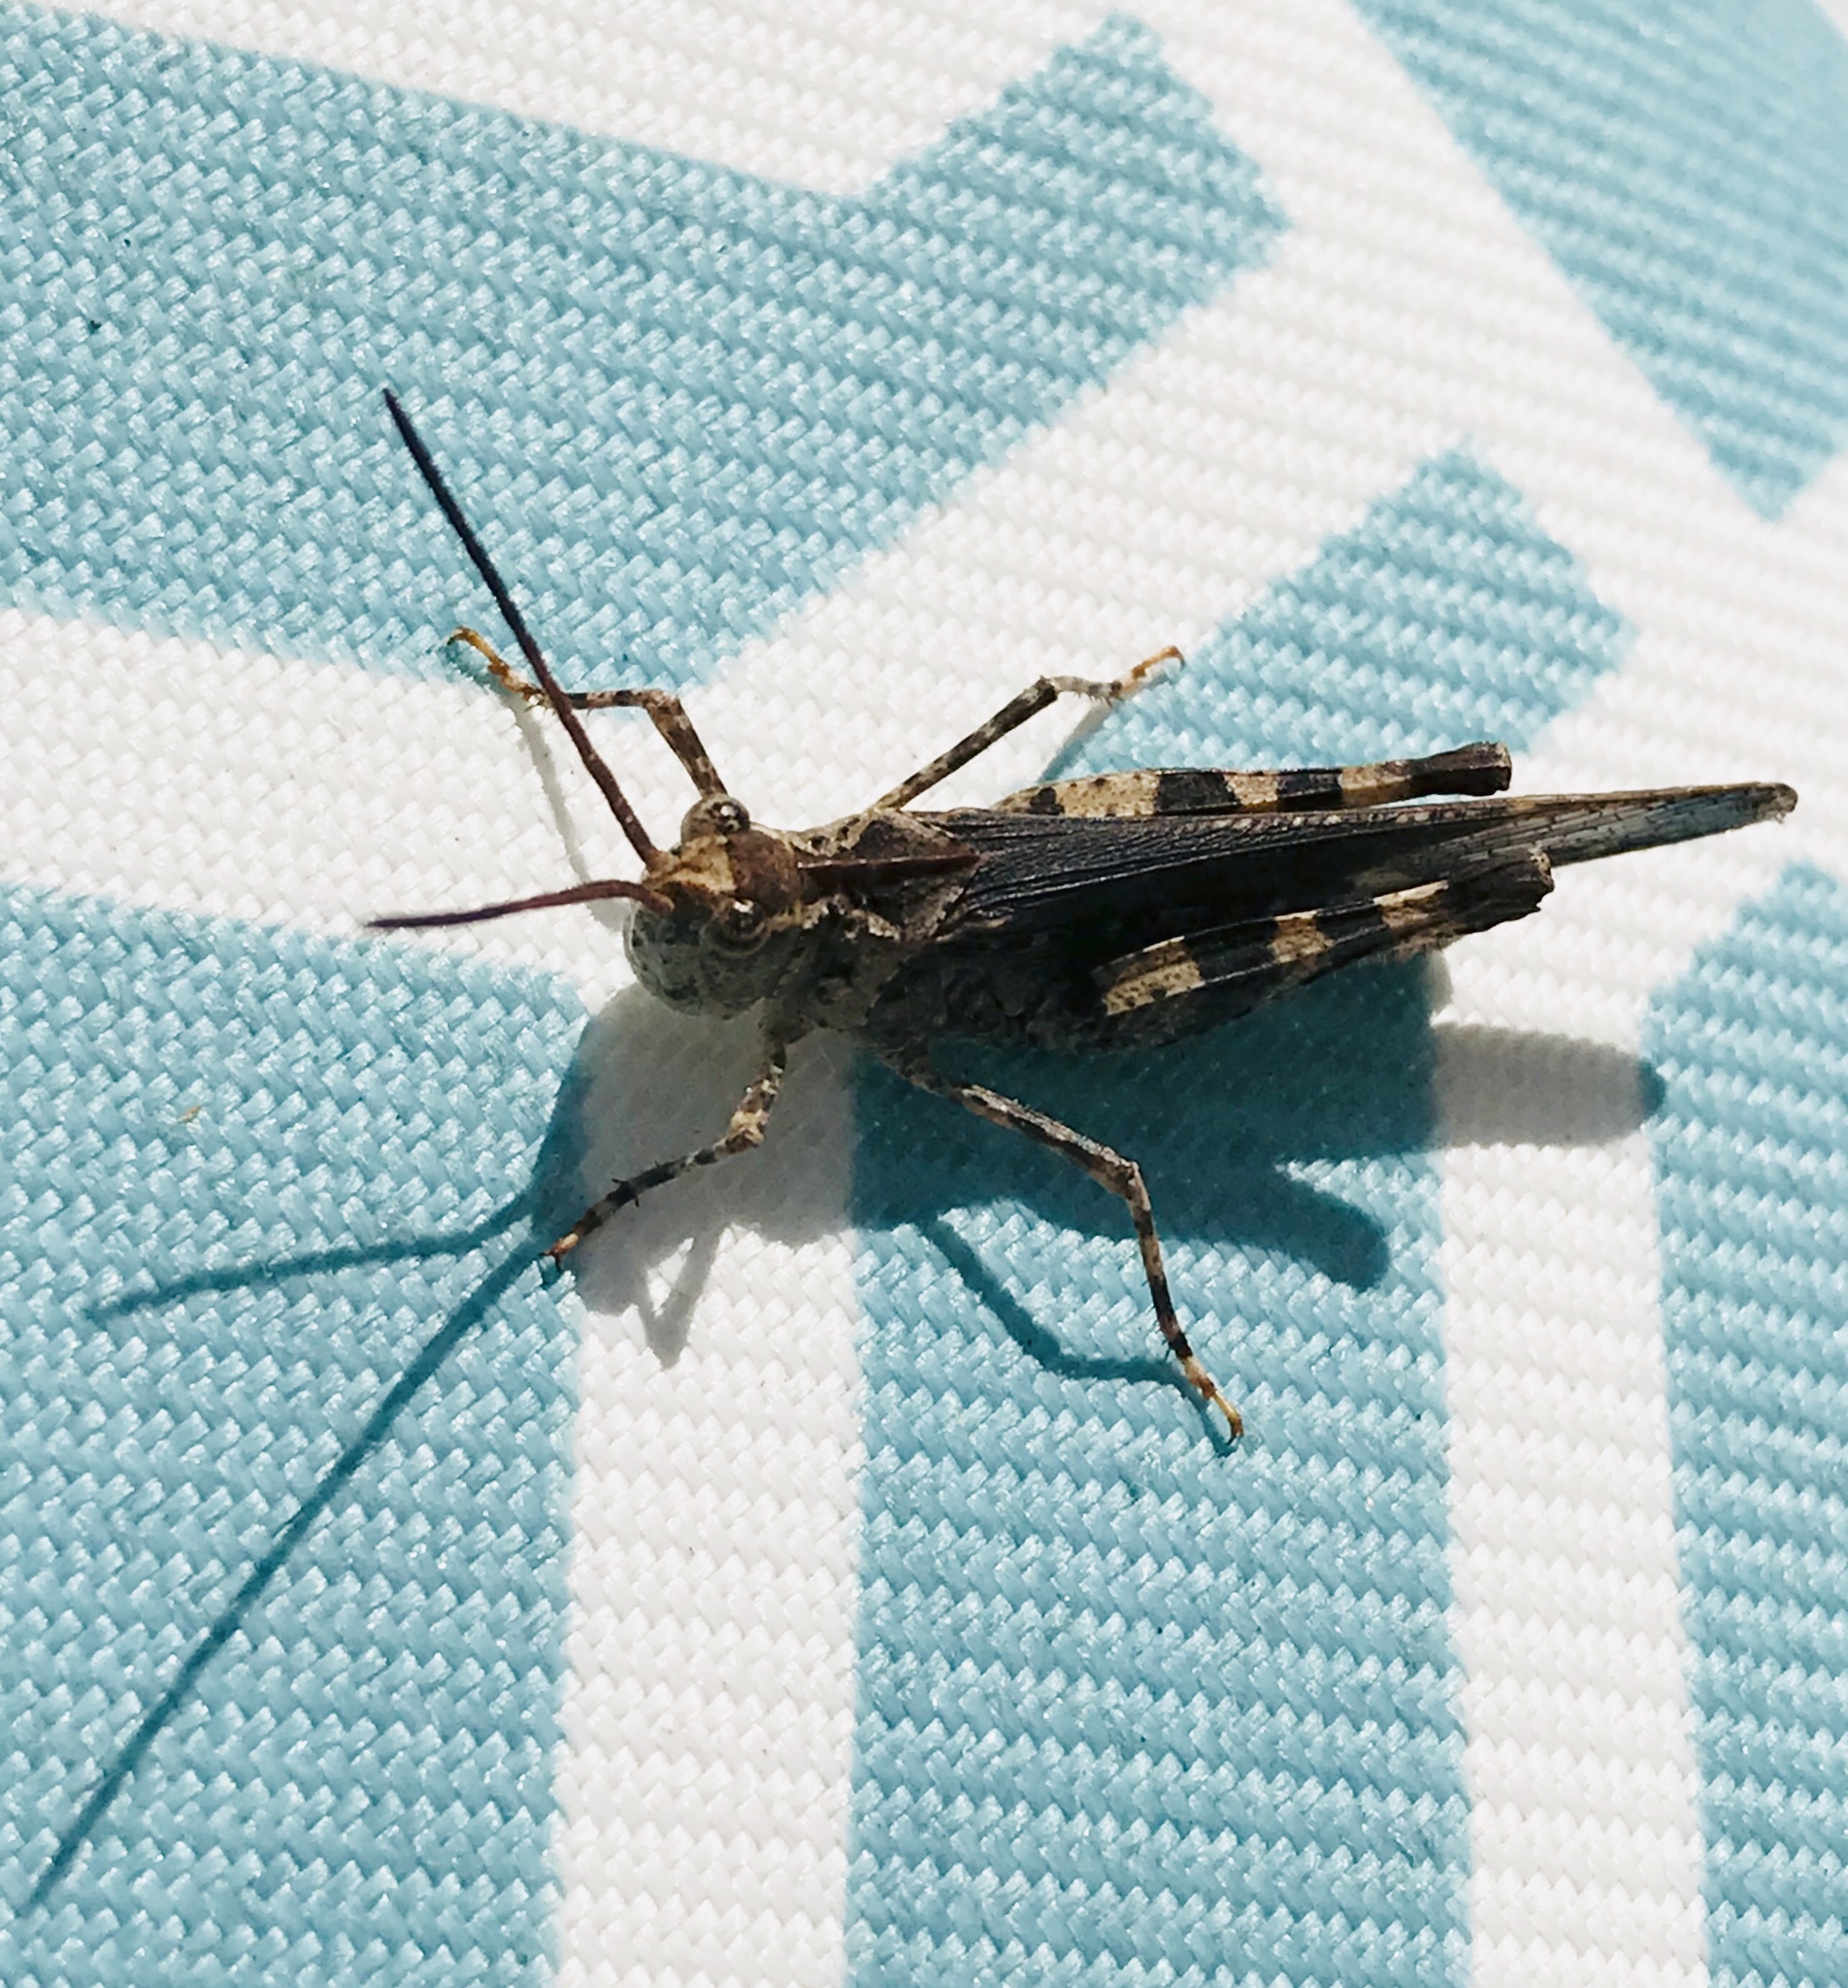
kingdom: Animalia
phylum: Arthropoda
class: Insecta
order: Orthoptera
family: Acrididae
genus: Psinidia
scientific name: Psinidia fenestralis
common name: Long-horned locust
